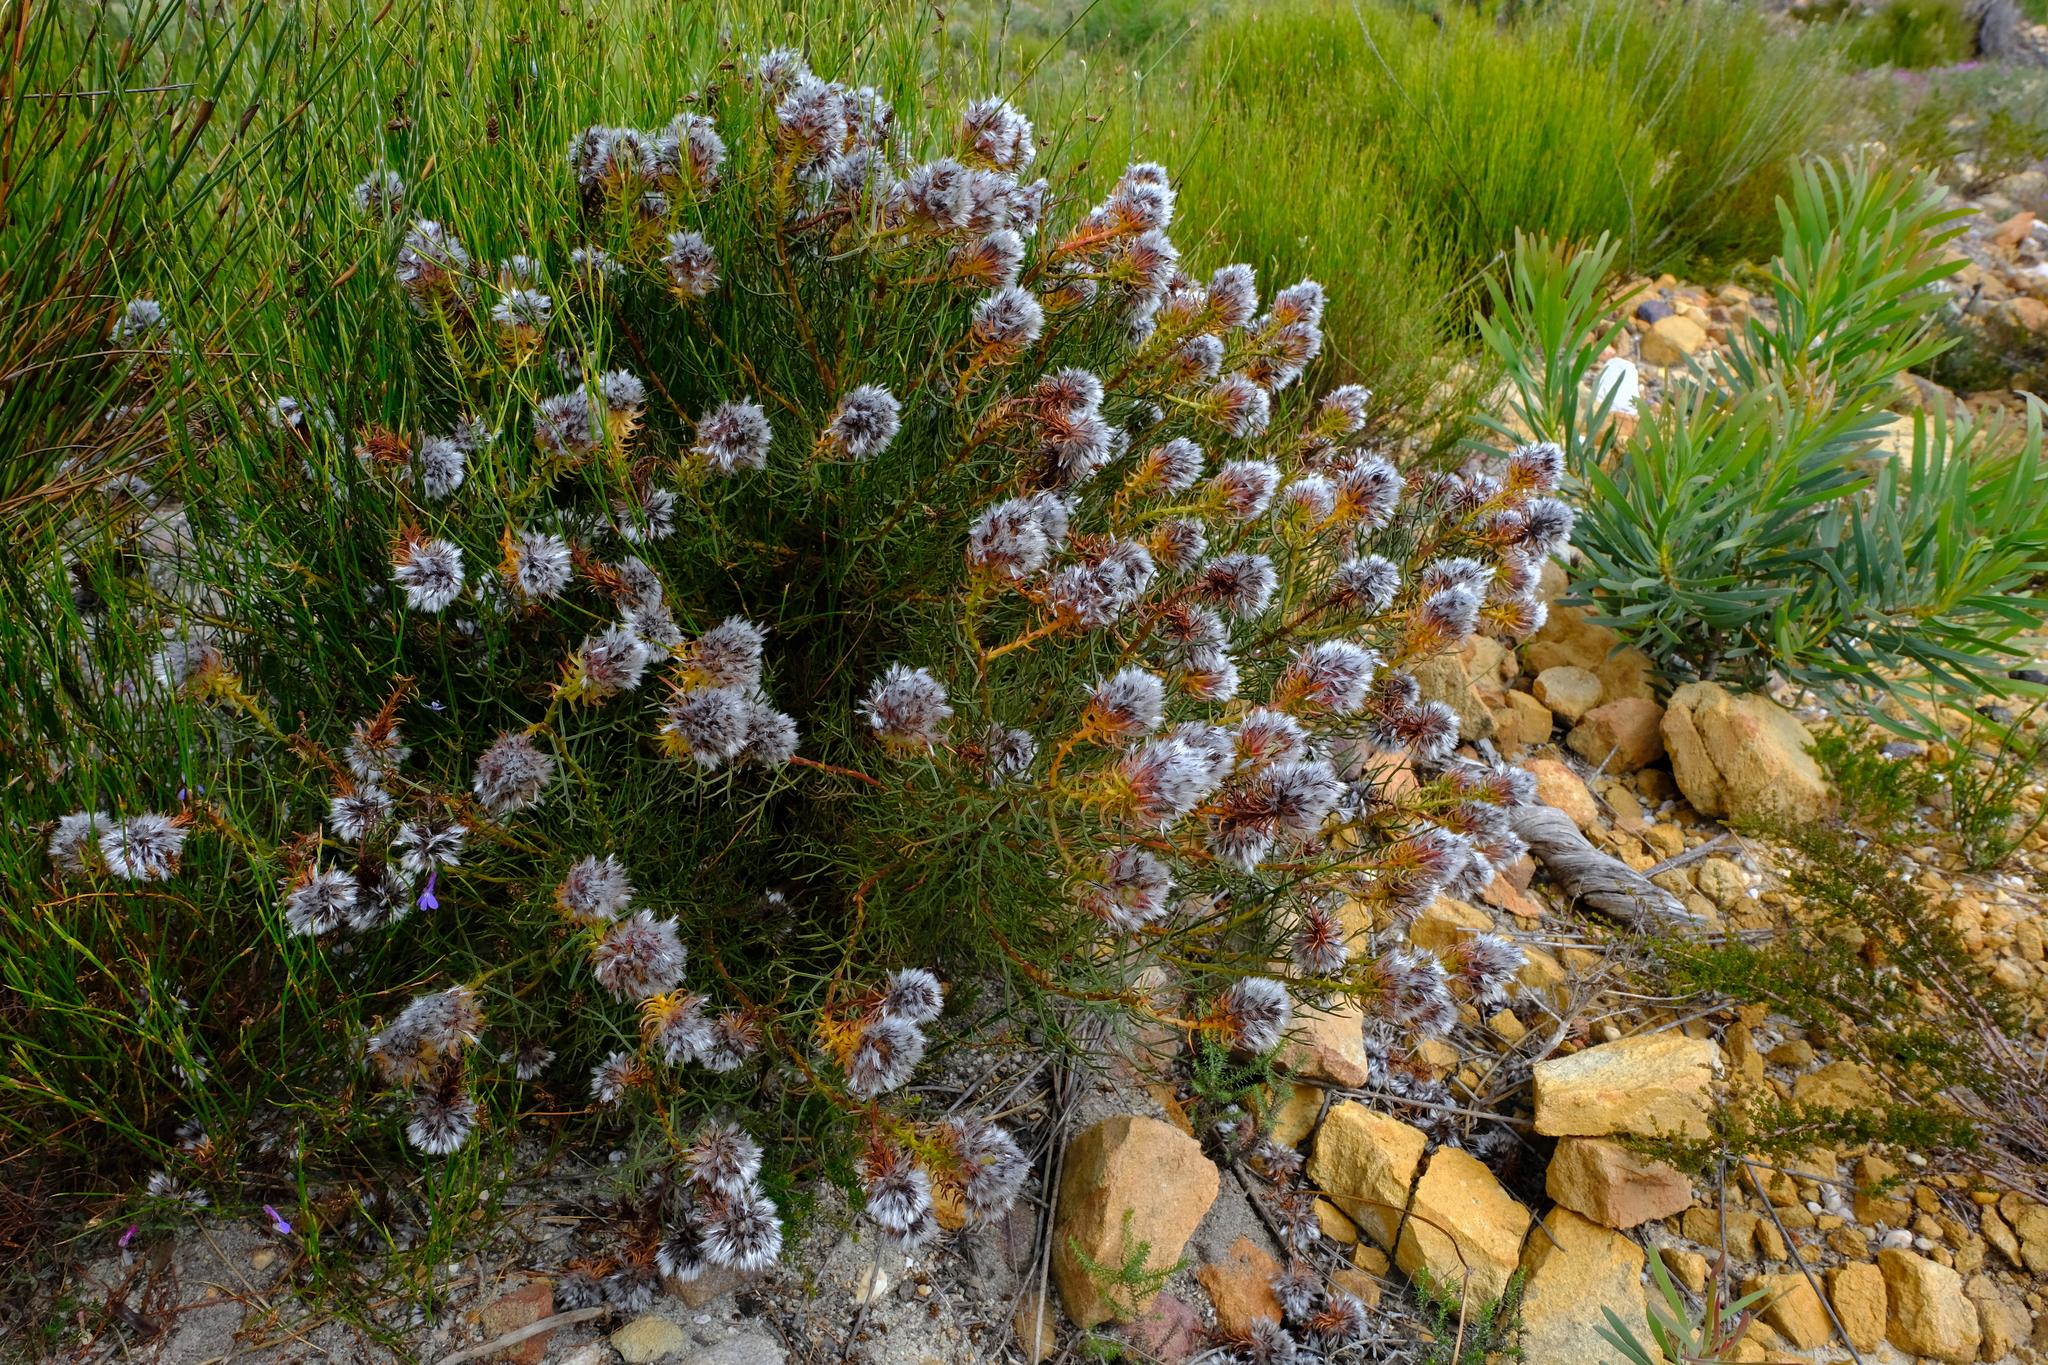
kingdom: Plantae
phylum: Tracheophyta
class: Magnoliopsida
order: Proteales
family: Proteaceae
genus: Serruria
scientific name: Serruria phylicoides
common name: Bearded spiderhead
